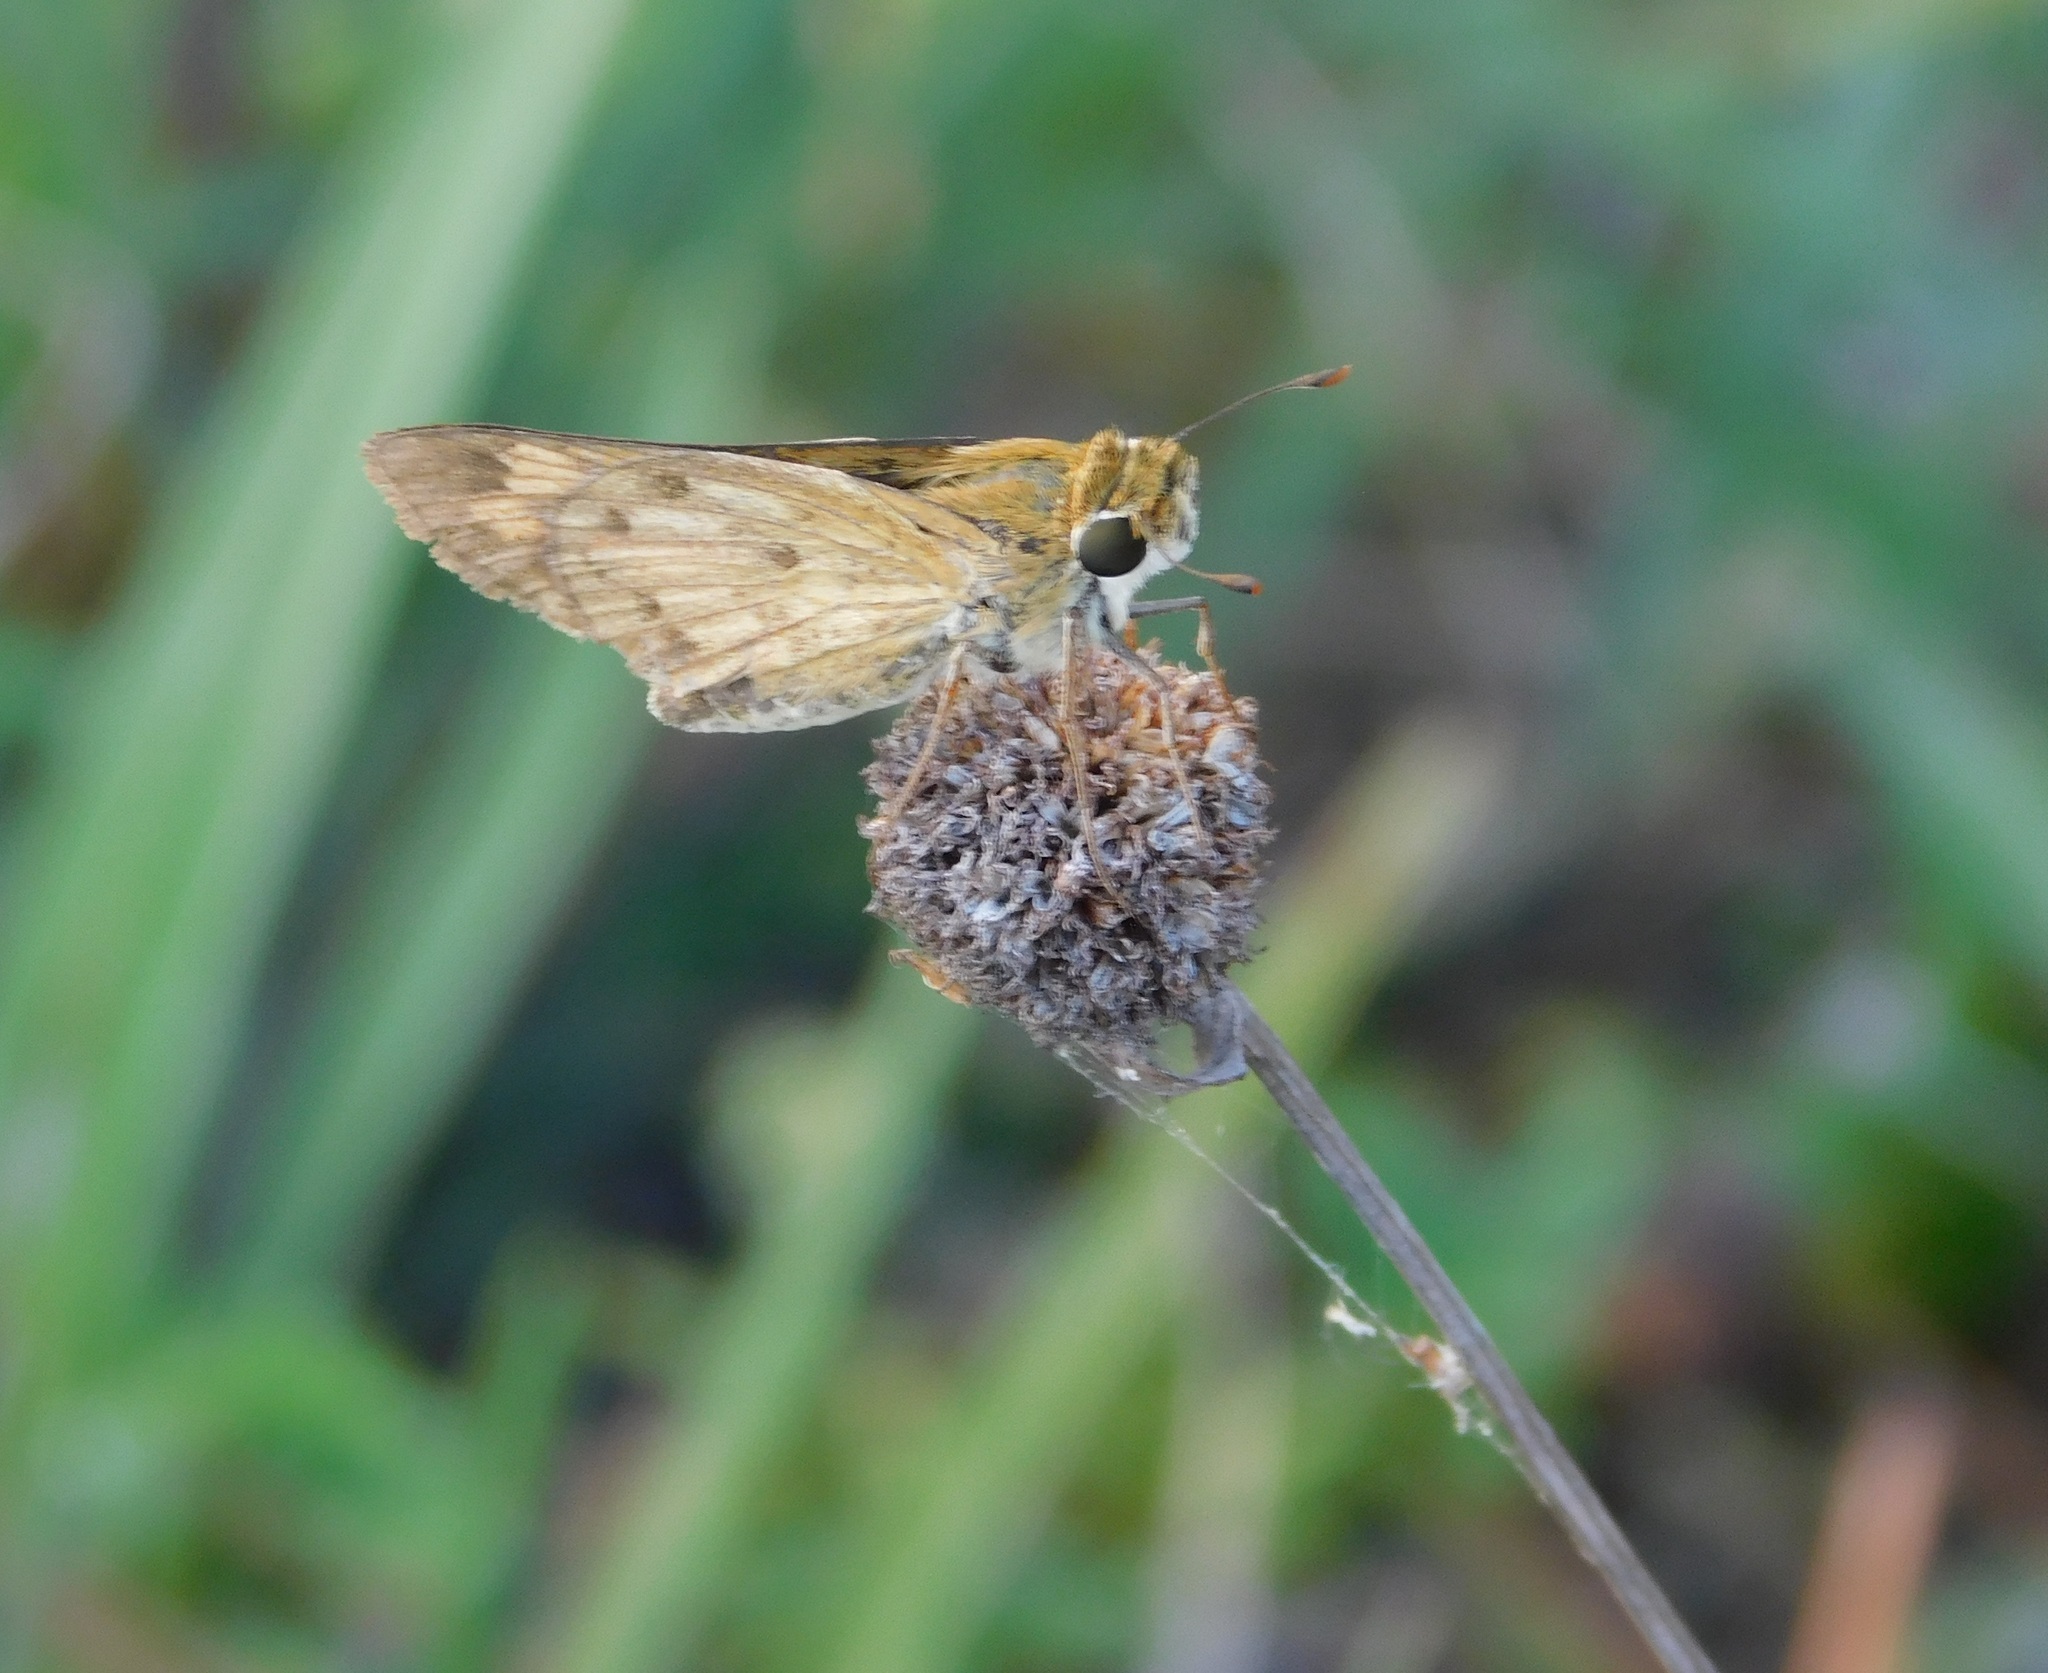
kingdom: Animalia
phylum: Arthropoda
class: Insecta
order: Lepidoptera
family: Hesperiidae
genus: Hylephila
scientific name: Hylephila phyleus
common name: Fiery skipper
